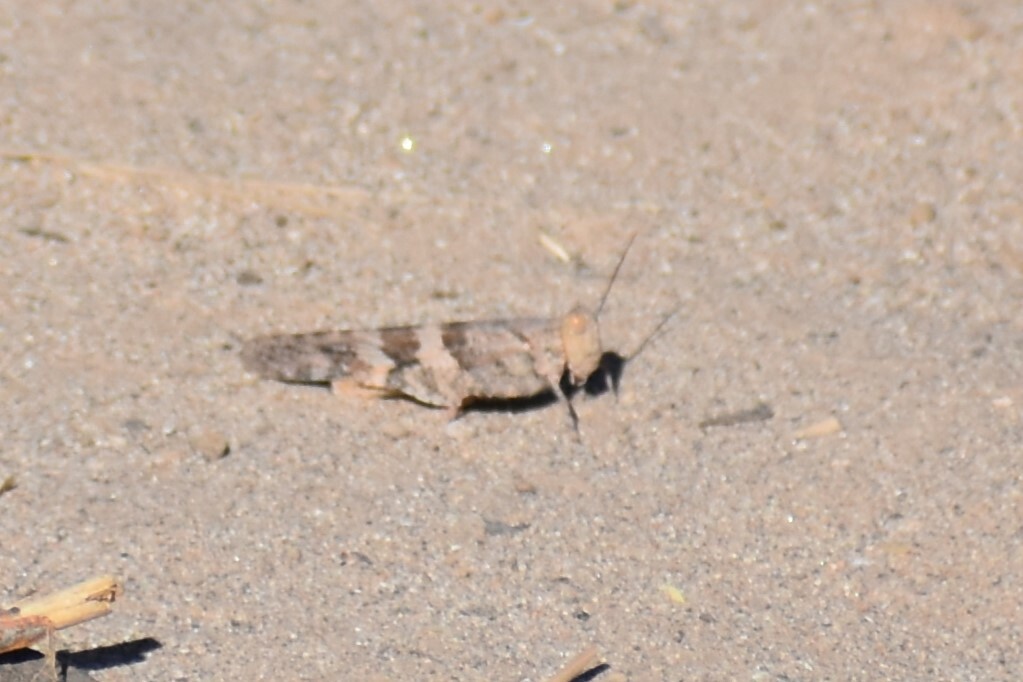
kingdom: Animalia
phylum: Arthropoda
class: Insecta
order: Orthoptera
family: Acrididae
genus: Trimerotropis
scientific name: Trimerotropis pallidipennis
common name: Pallid-winged grasshopper
